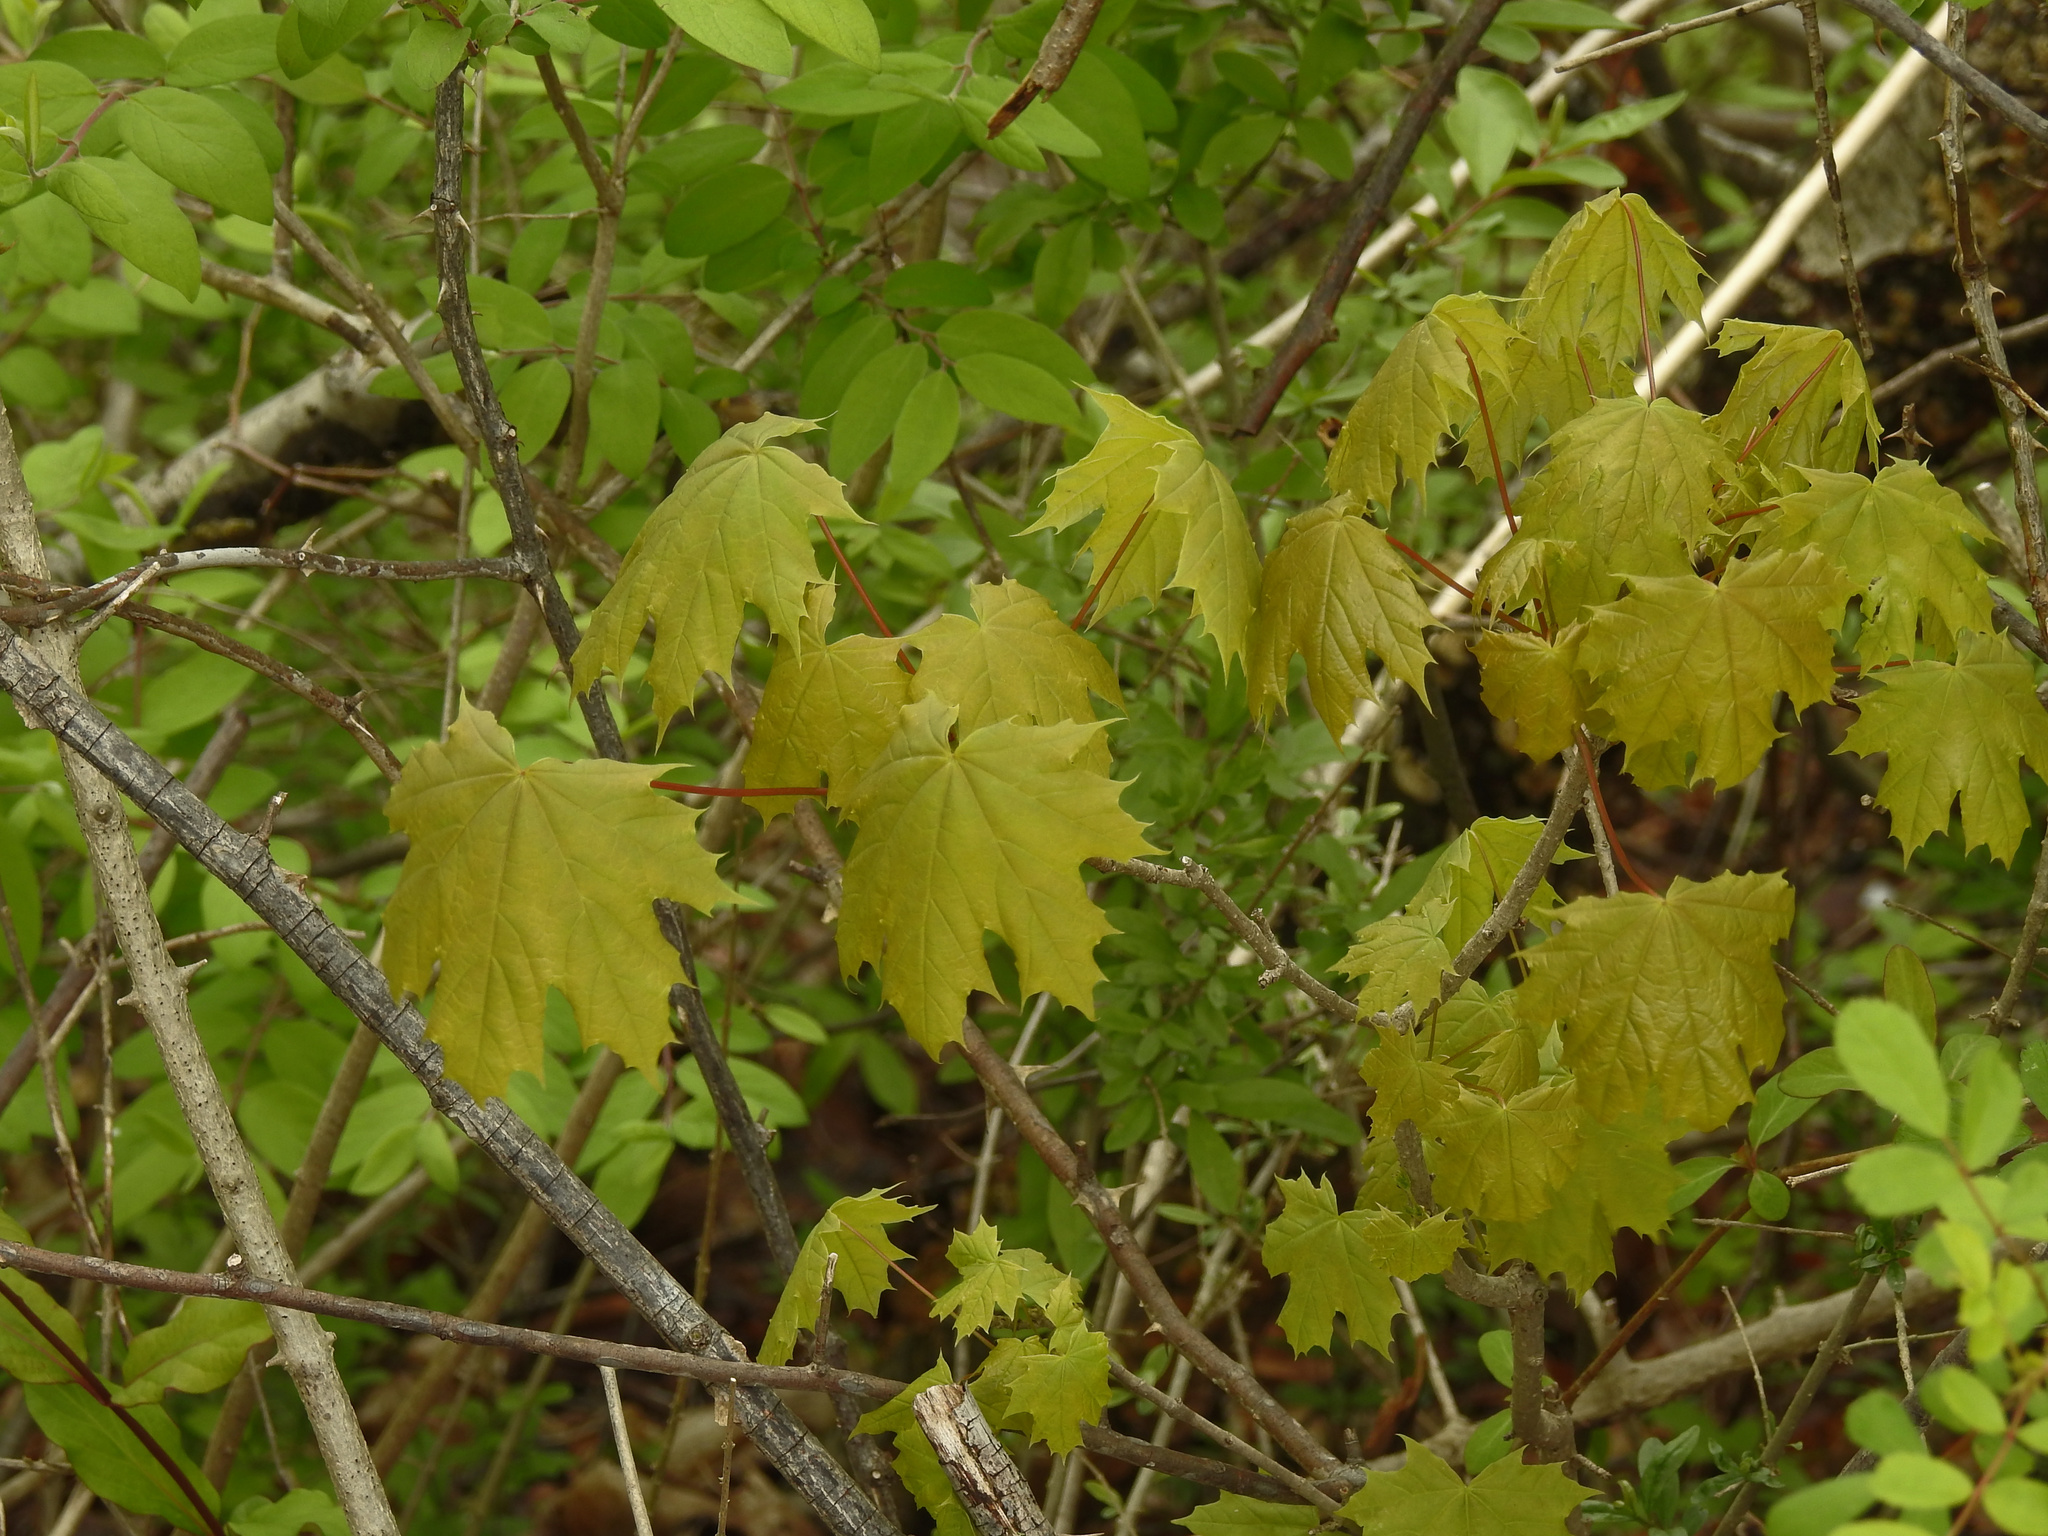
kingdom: Plantae
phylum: Tracheophyta
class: Magnoliopsida
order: Sapindales
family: Sapindaceae
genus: Acer
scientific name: Acer platanoides
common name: Norway maple
